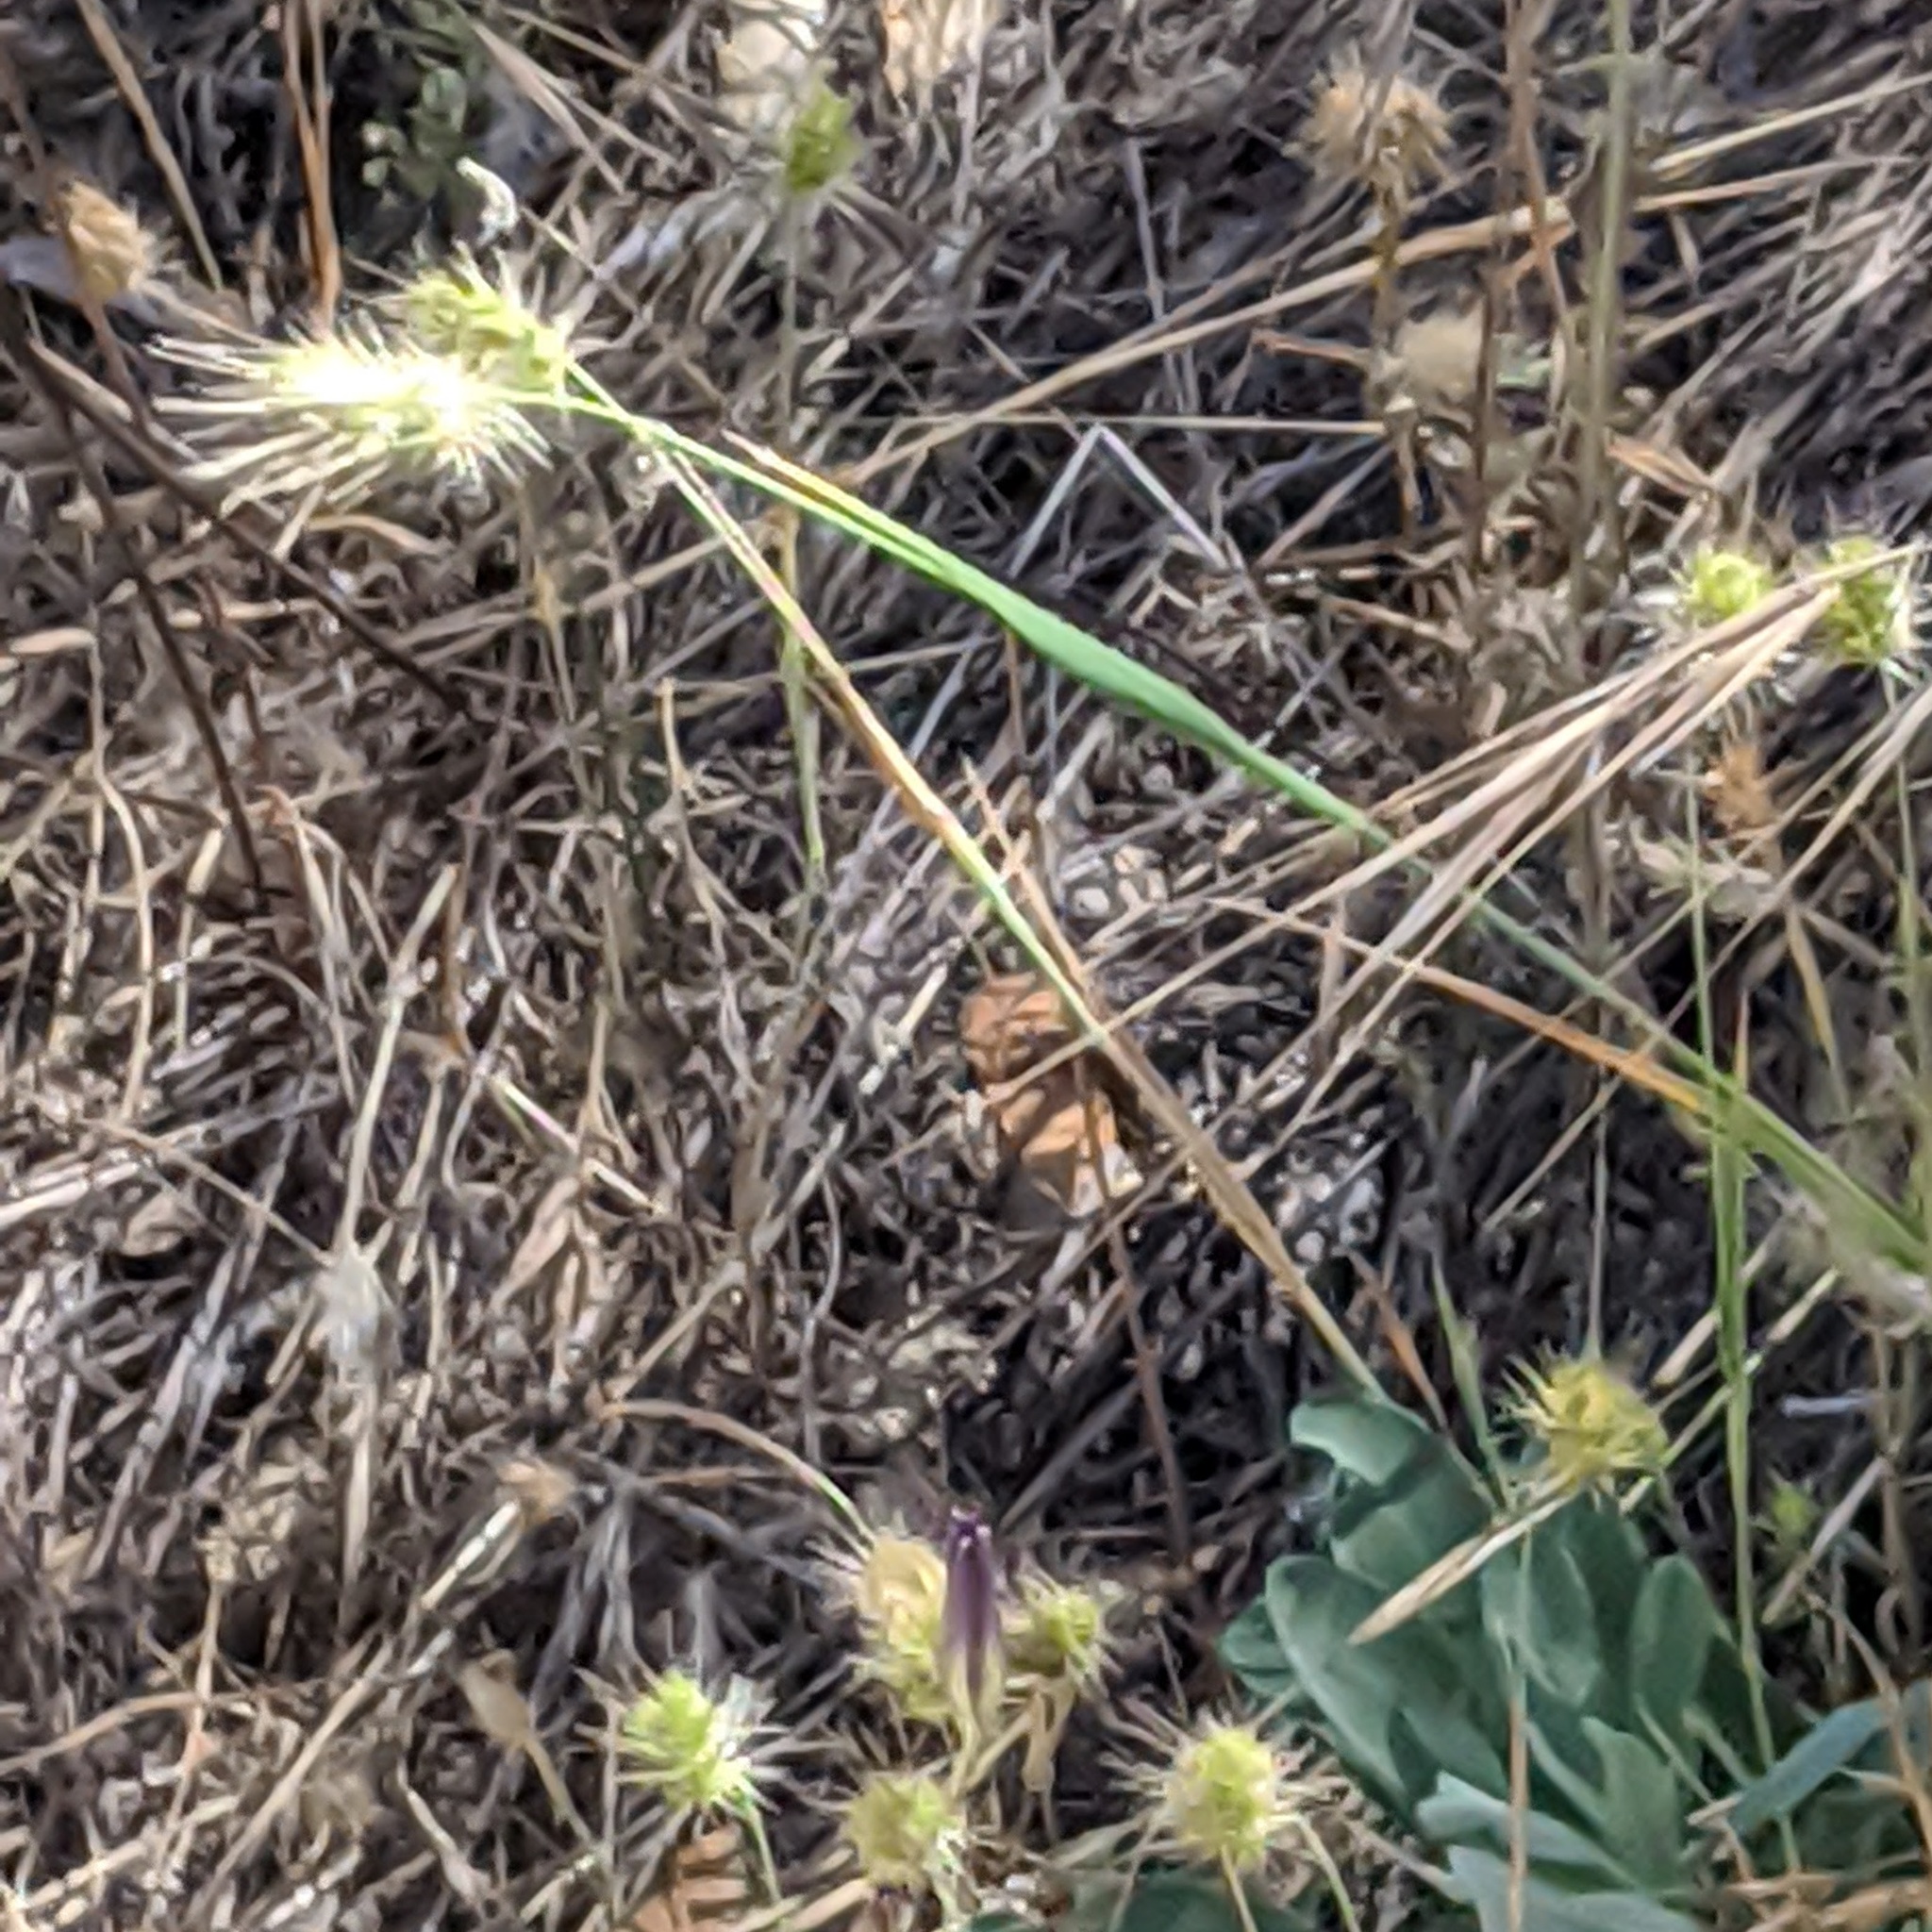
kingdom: Plantae
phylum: Tracheophyta
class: Liliopsida
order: Poales
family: Poaceae
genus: Cynosurus
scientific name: Cynosurus echinatus
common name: Rough dog's-tail
